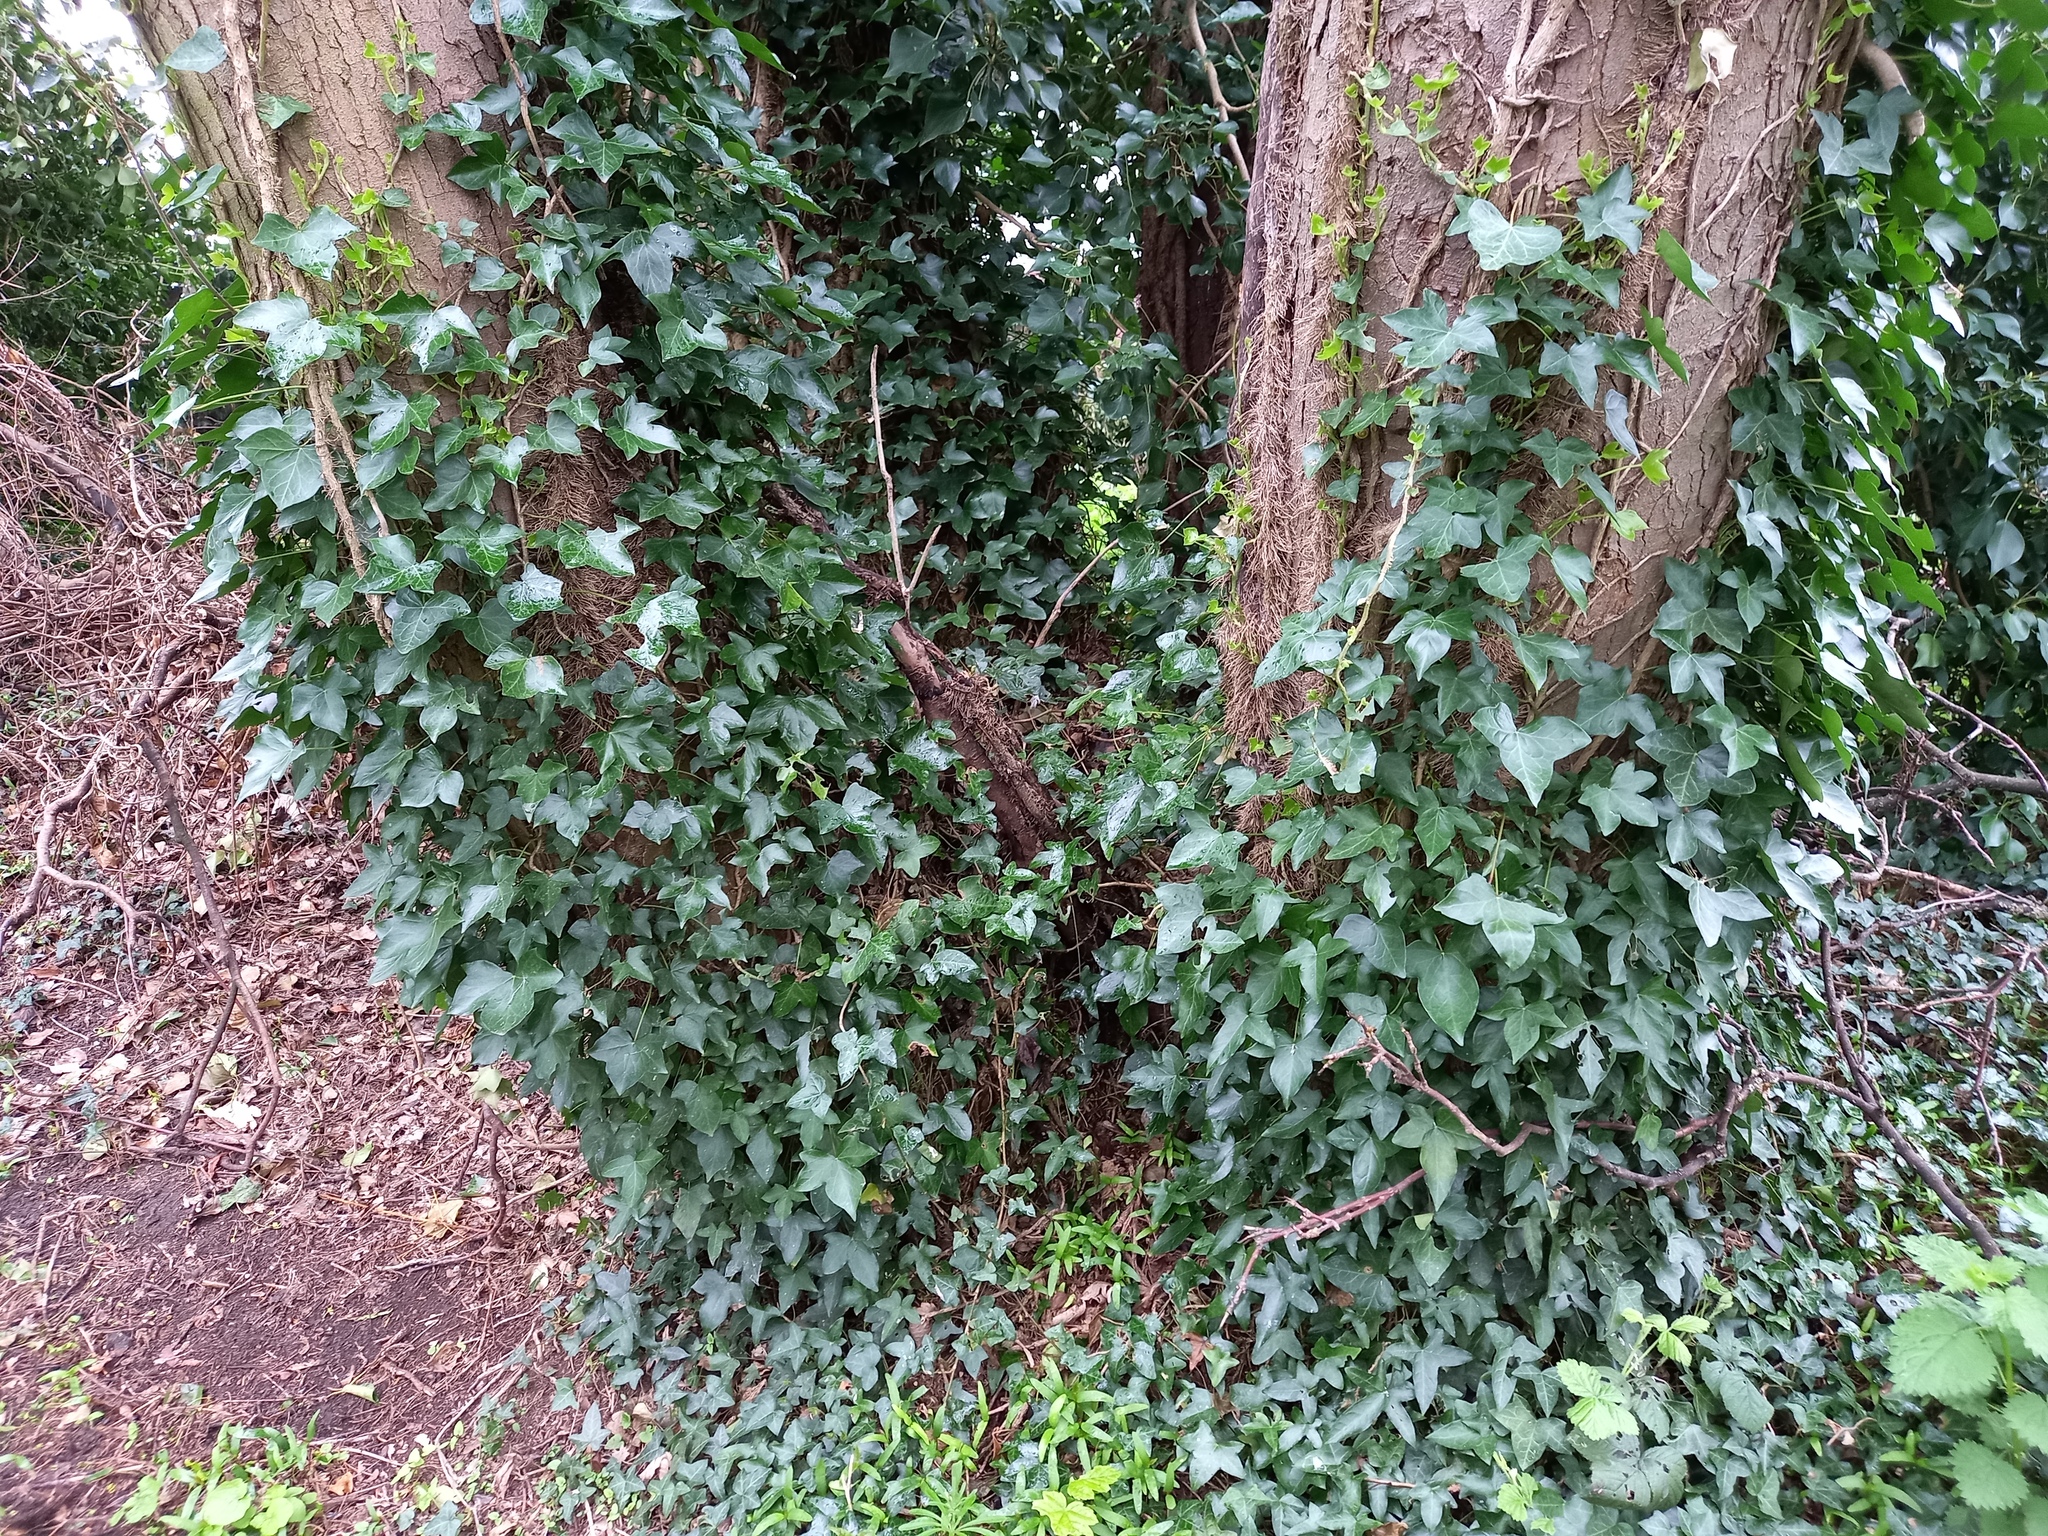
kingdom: Plantae
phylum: Tracheophyta
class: Magnoliopsida
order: Apiales
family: Araliaceae
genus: Hedera
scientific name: Hedera helix
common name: Ivy
